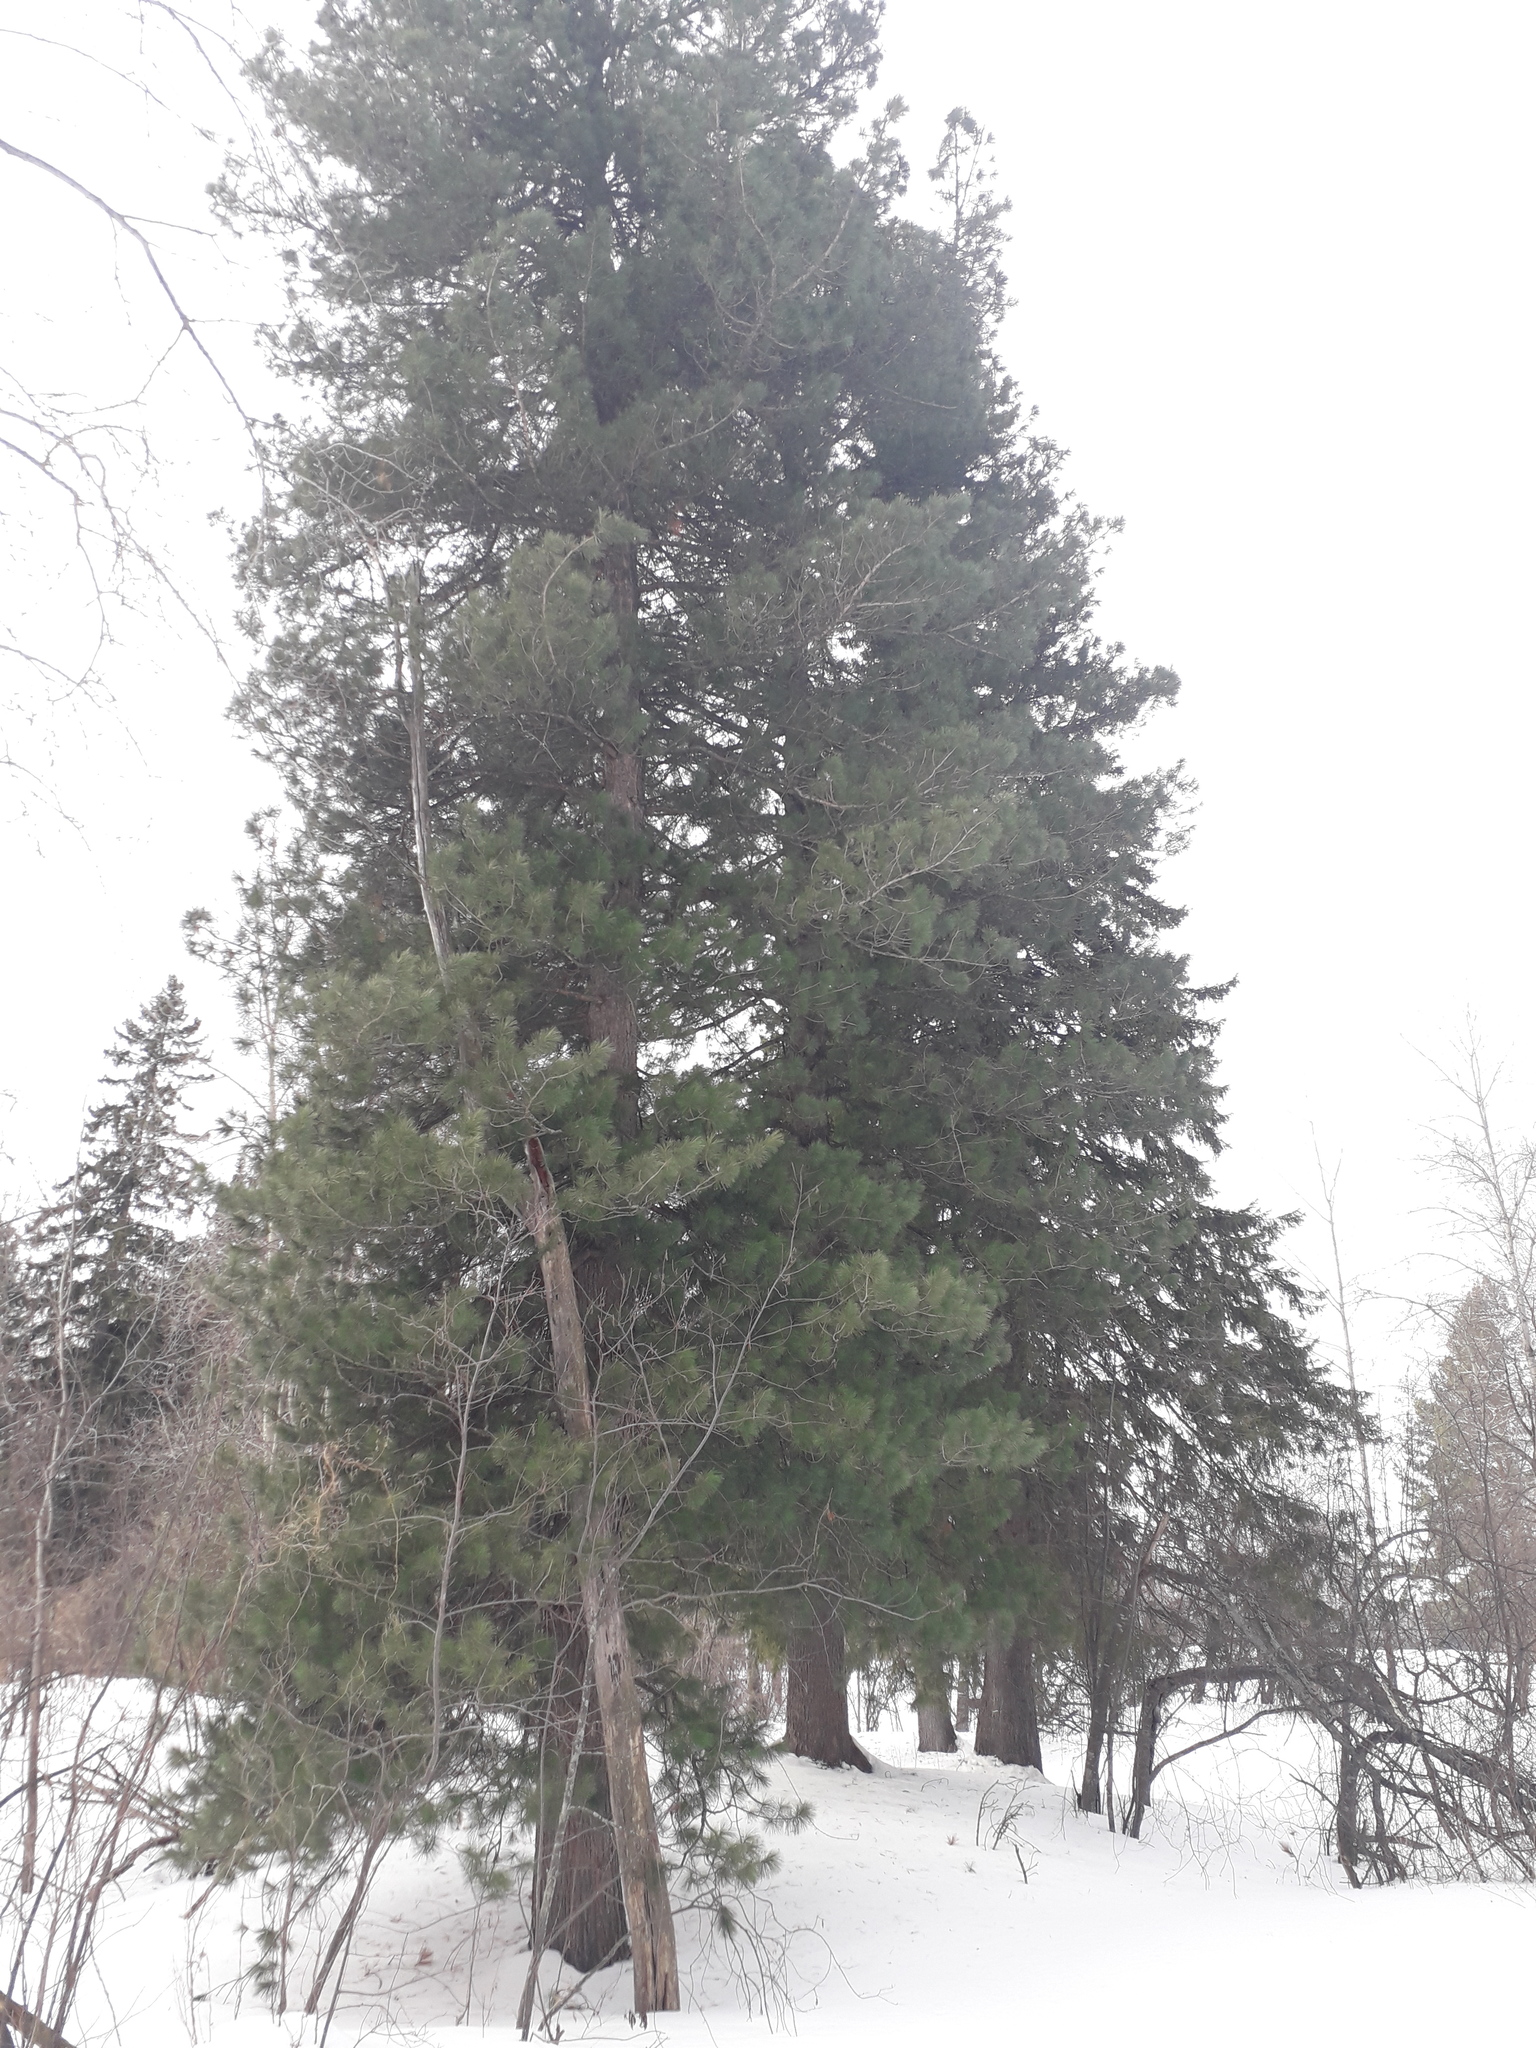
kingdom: Plantae
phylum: Tracheophyta
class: Pinopsida
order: Pinales
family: Pinaceae
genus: Pinus
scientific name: Pinus sibirica
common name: Siberian pine
